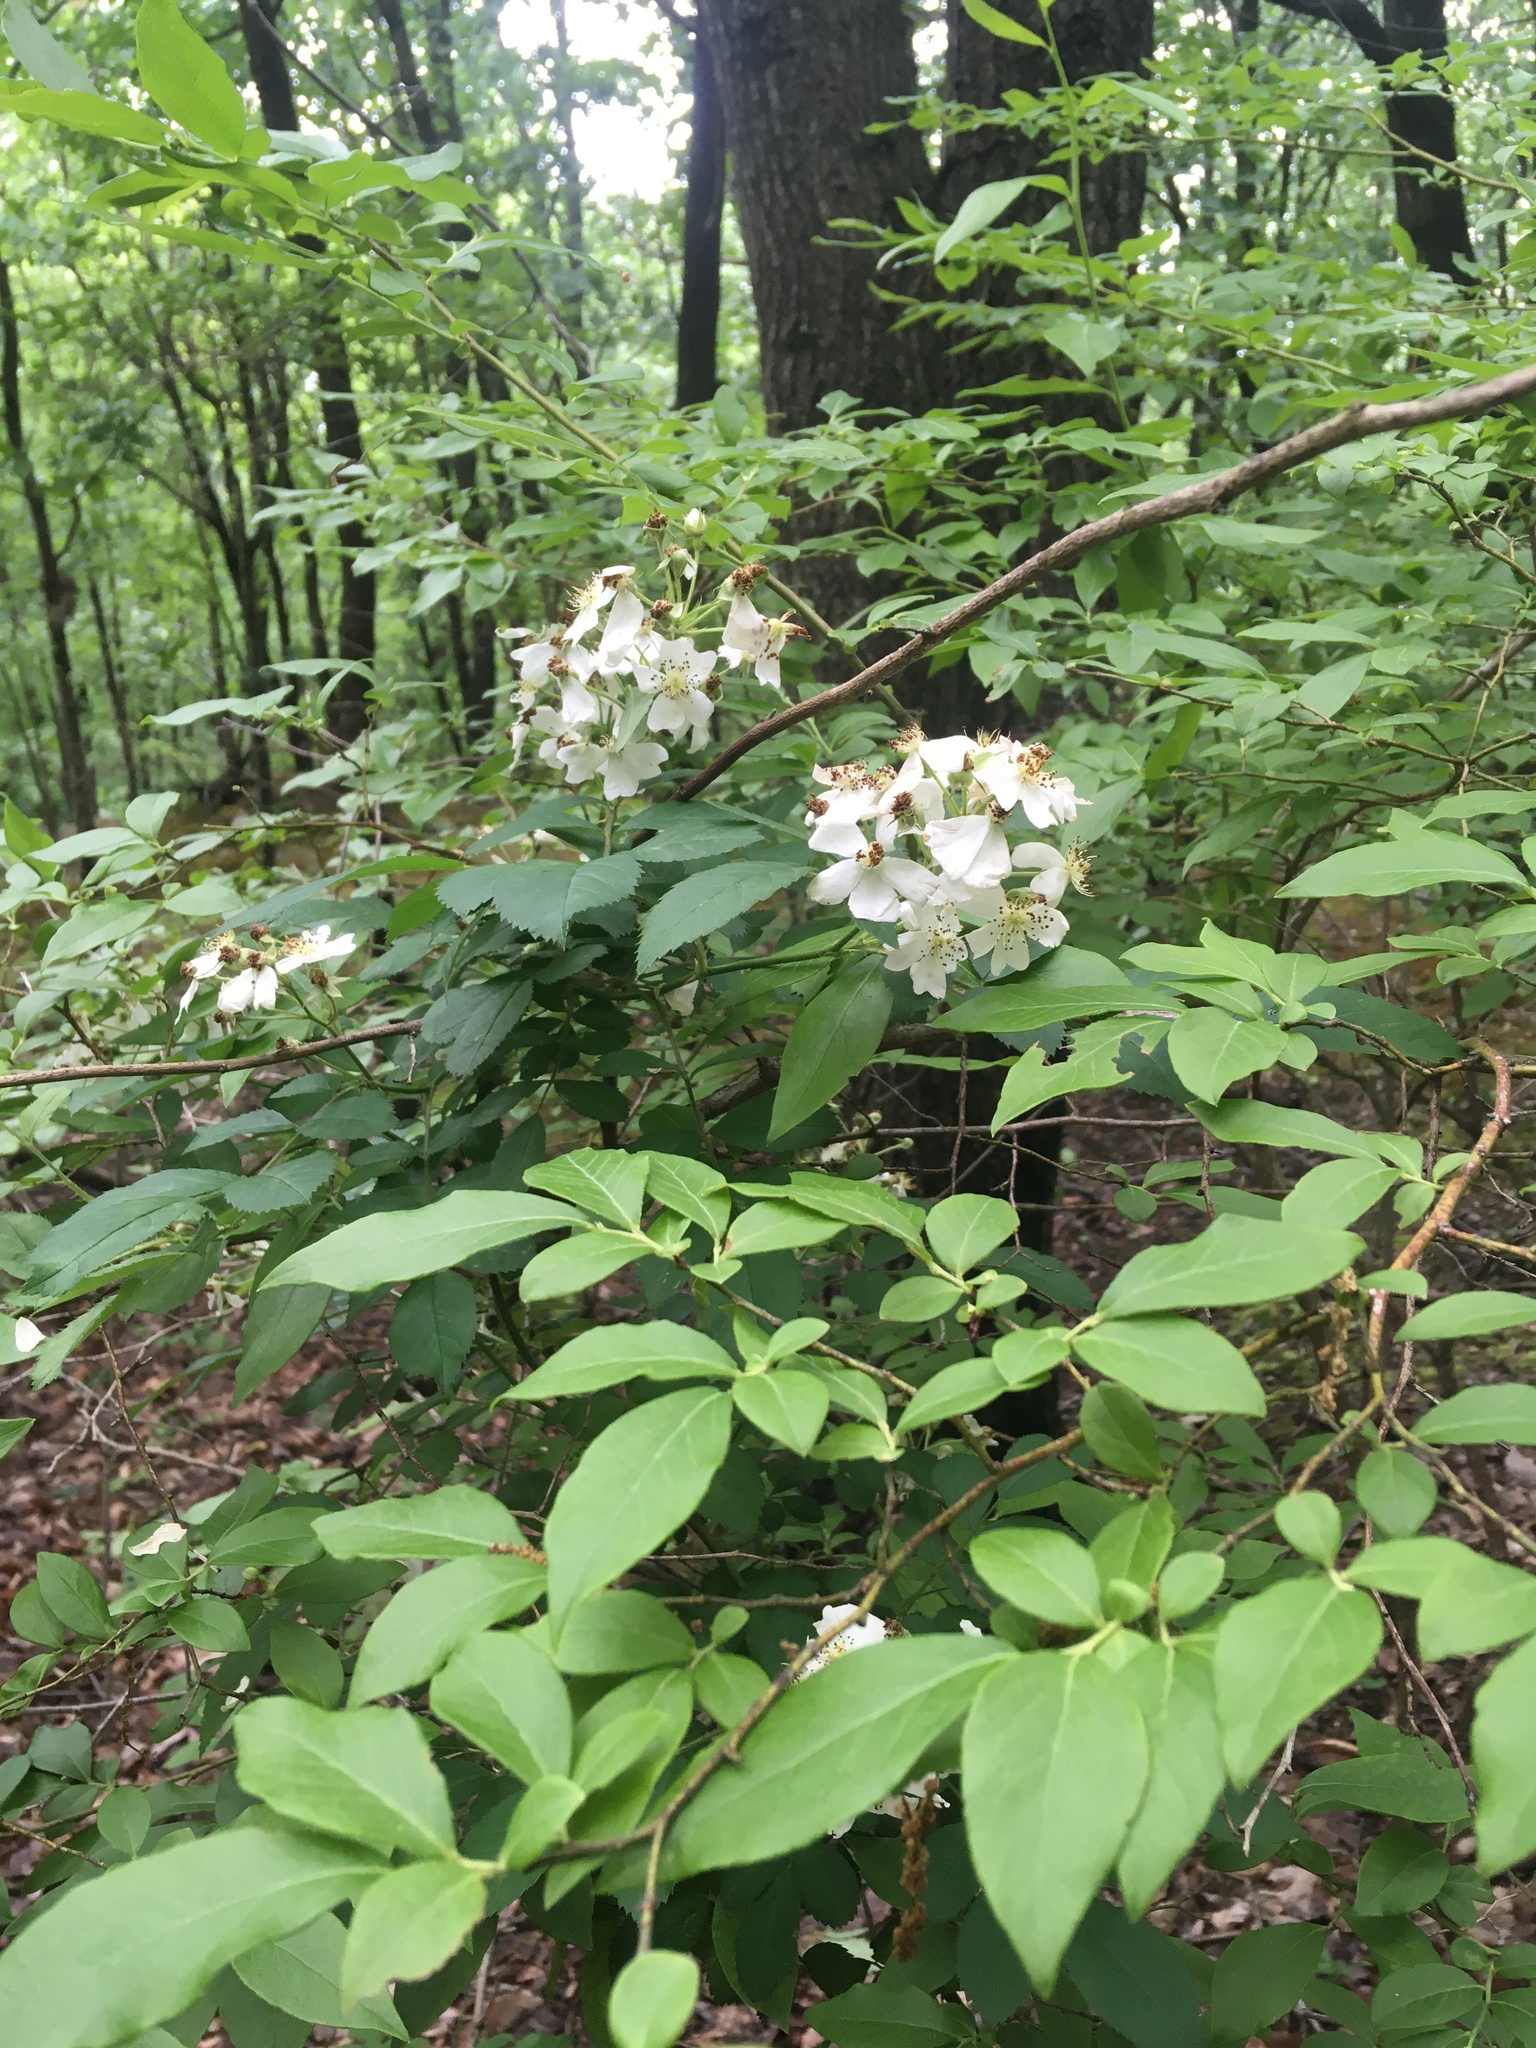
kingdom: Plantae
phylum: Tracheophyta
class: Magnoliopsida
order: Rosales
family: Rosaceae
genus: Rosa
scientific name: Rosa multiflora
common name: Multiflora rose
